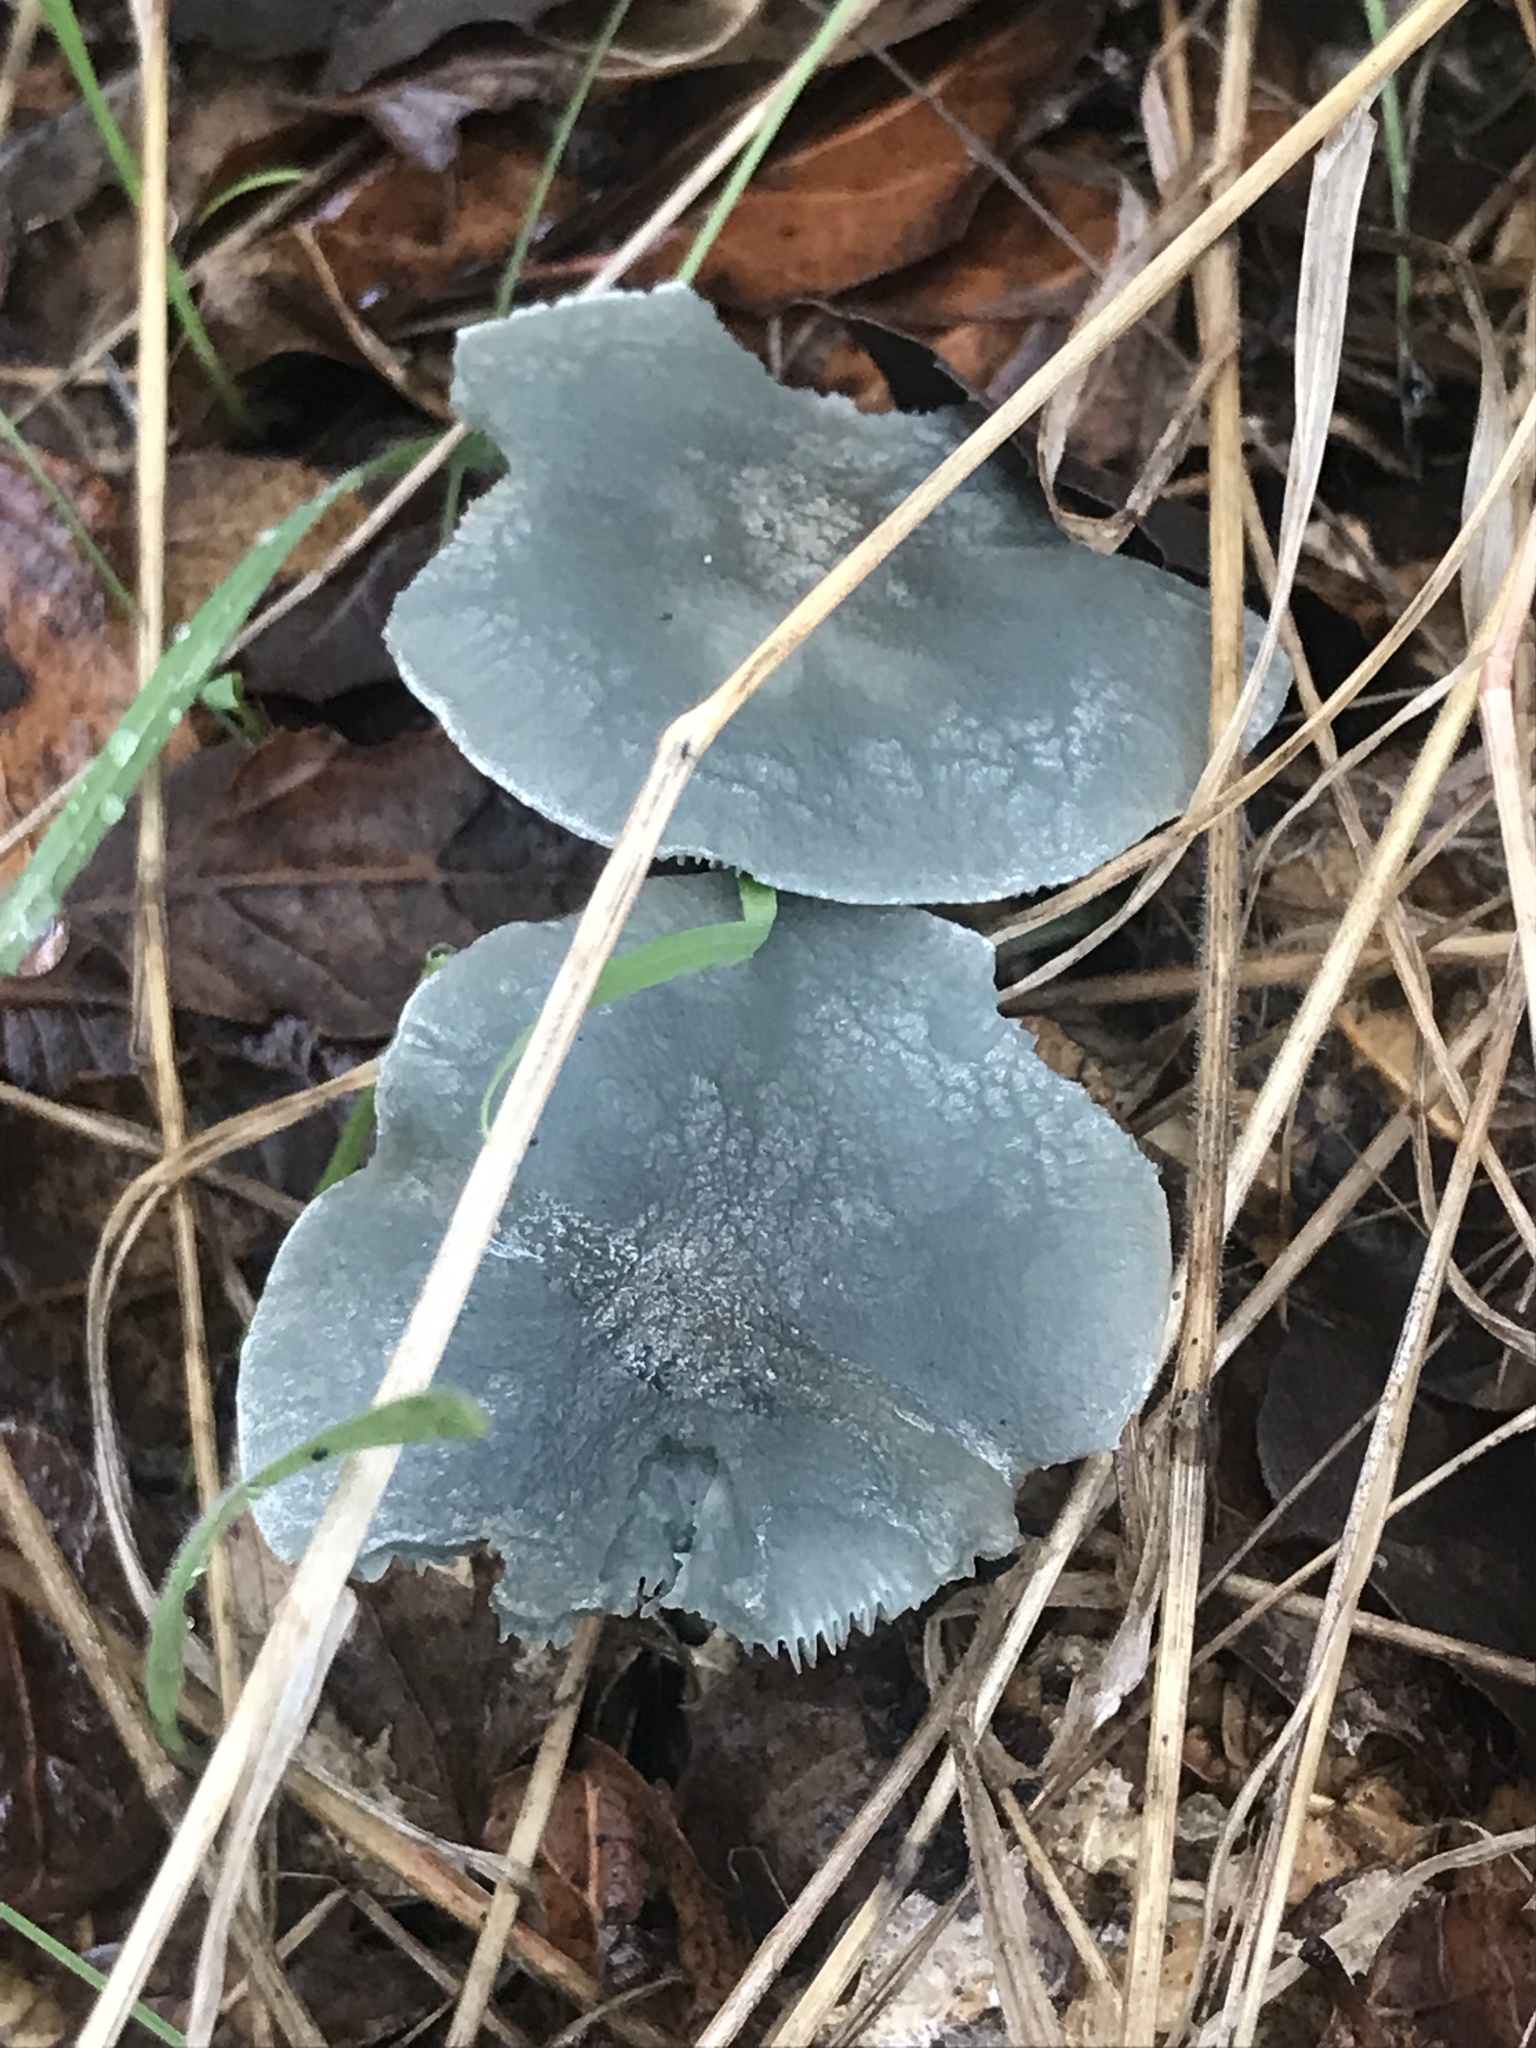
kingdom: Fungi
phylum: Basidiomycota
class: Agaricomycetes
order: Agaricales
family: Tricholomataceae
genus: Collybia
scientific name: Collybia
